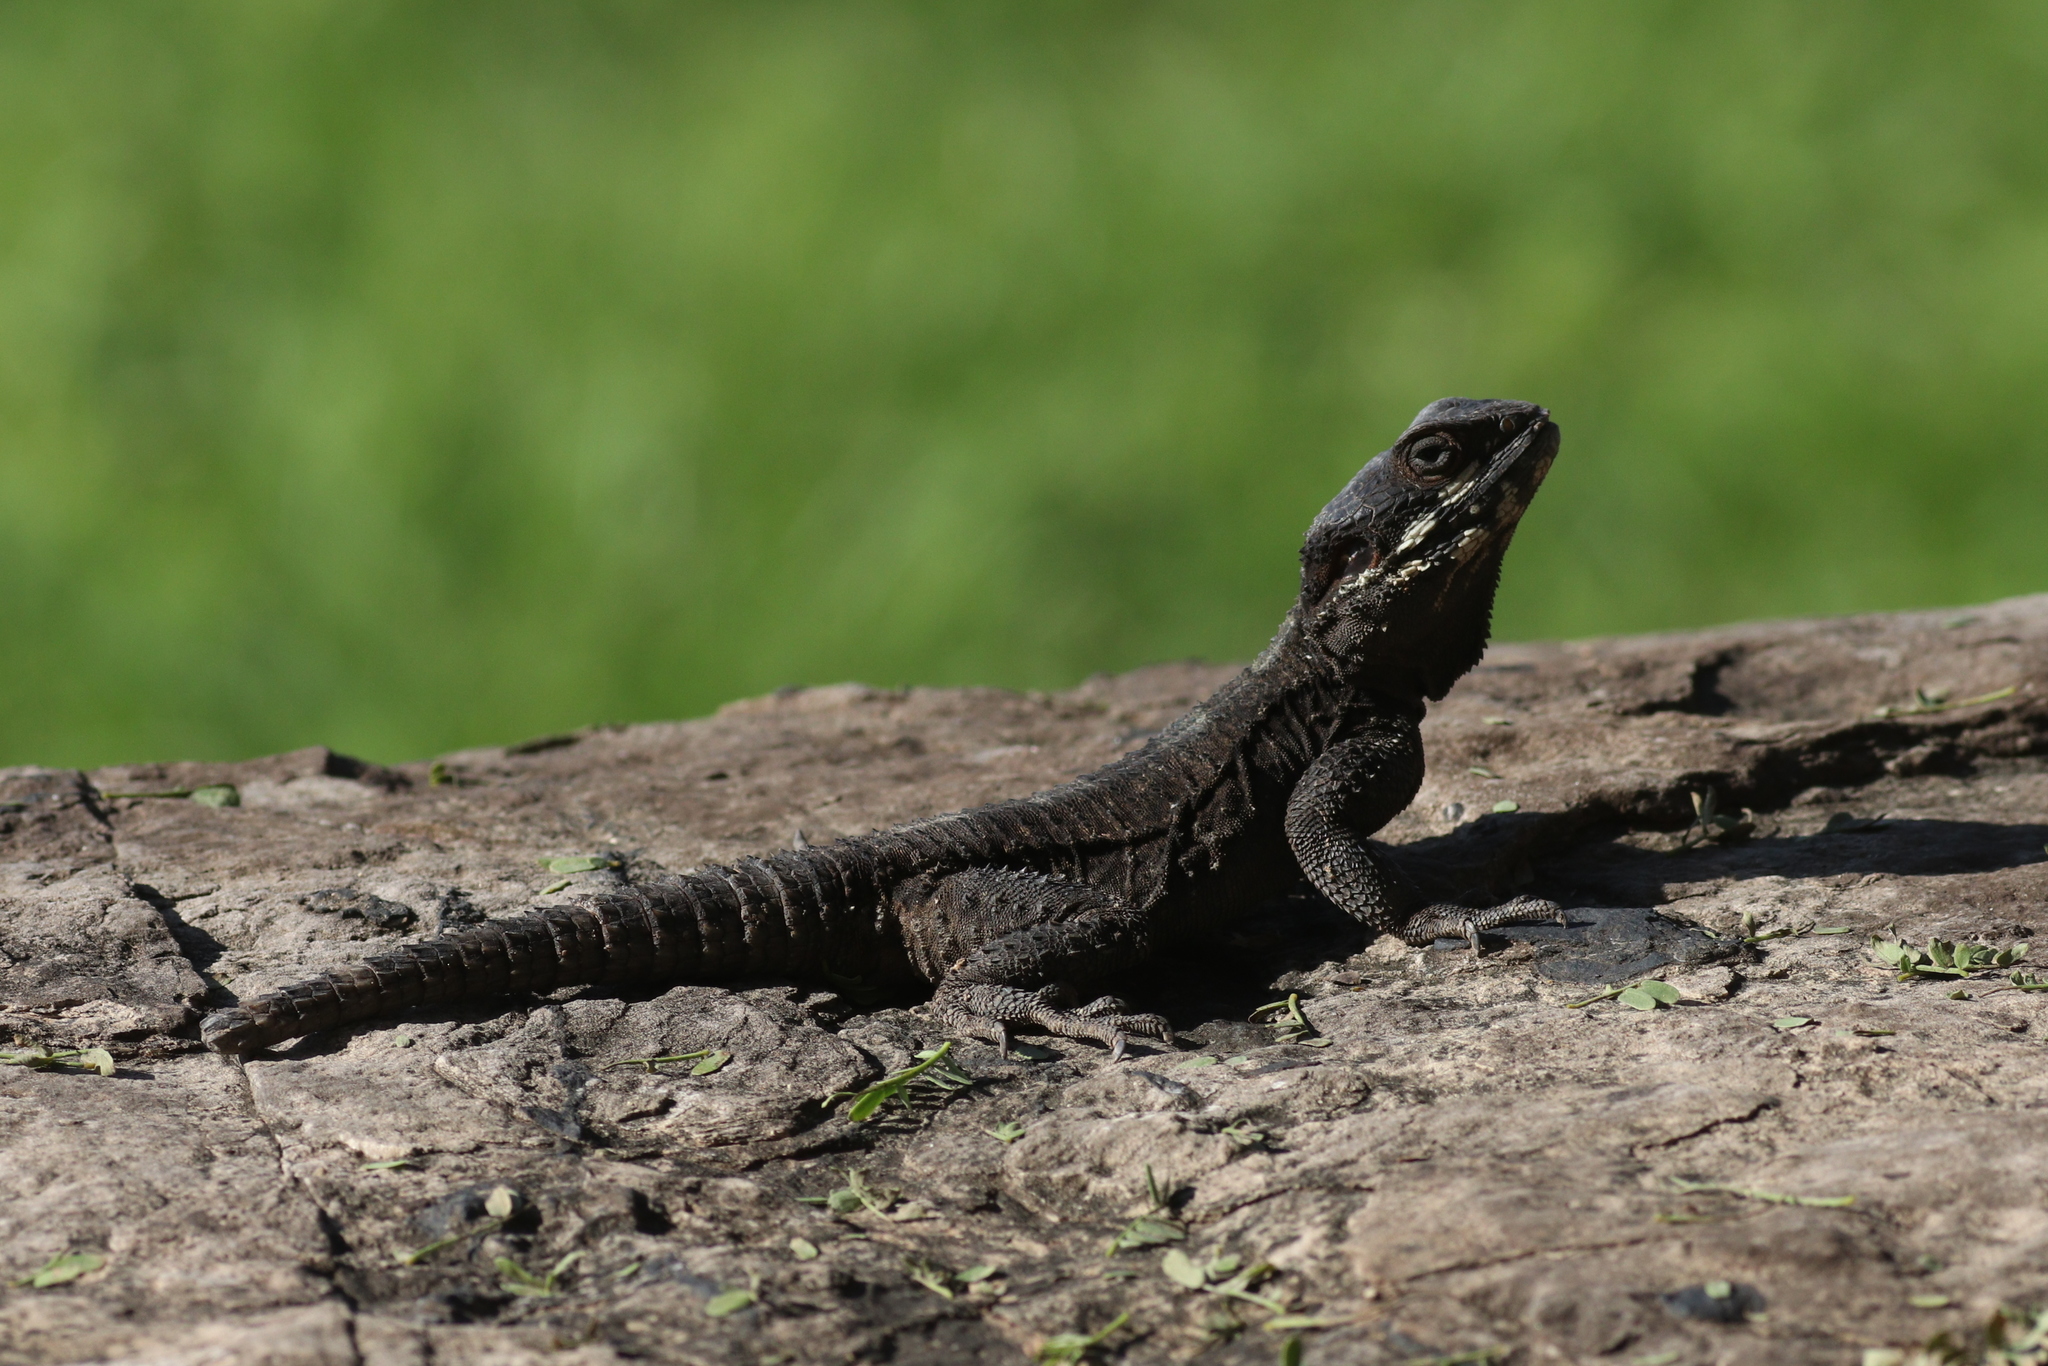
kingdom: Animalia
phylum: Chordata
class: Squamata
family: Agamidae
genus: Laudakia
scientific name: Laudakia vulgaris
